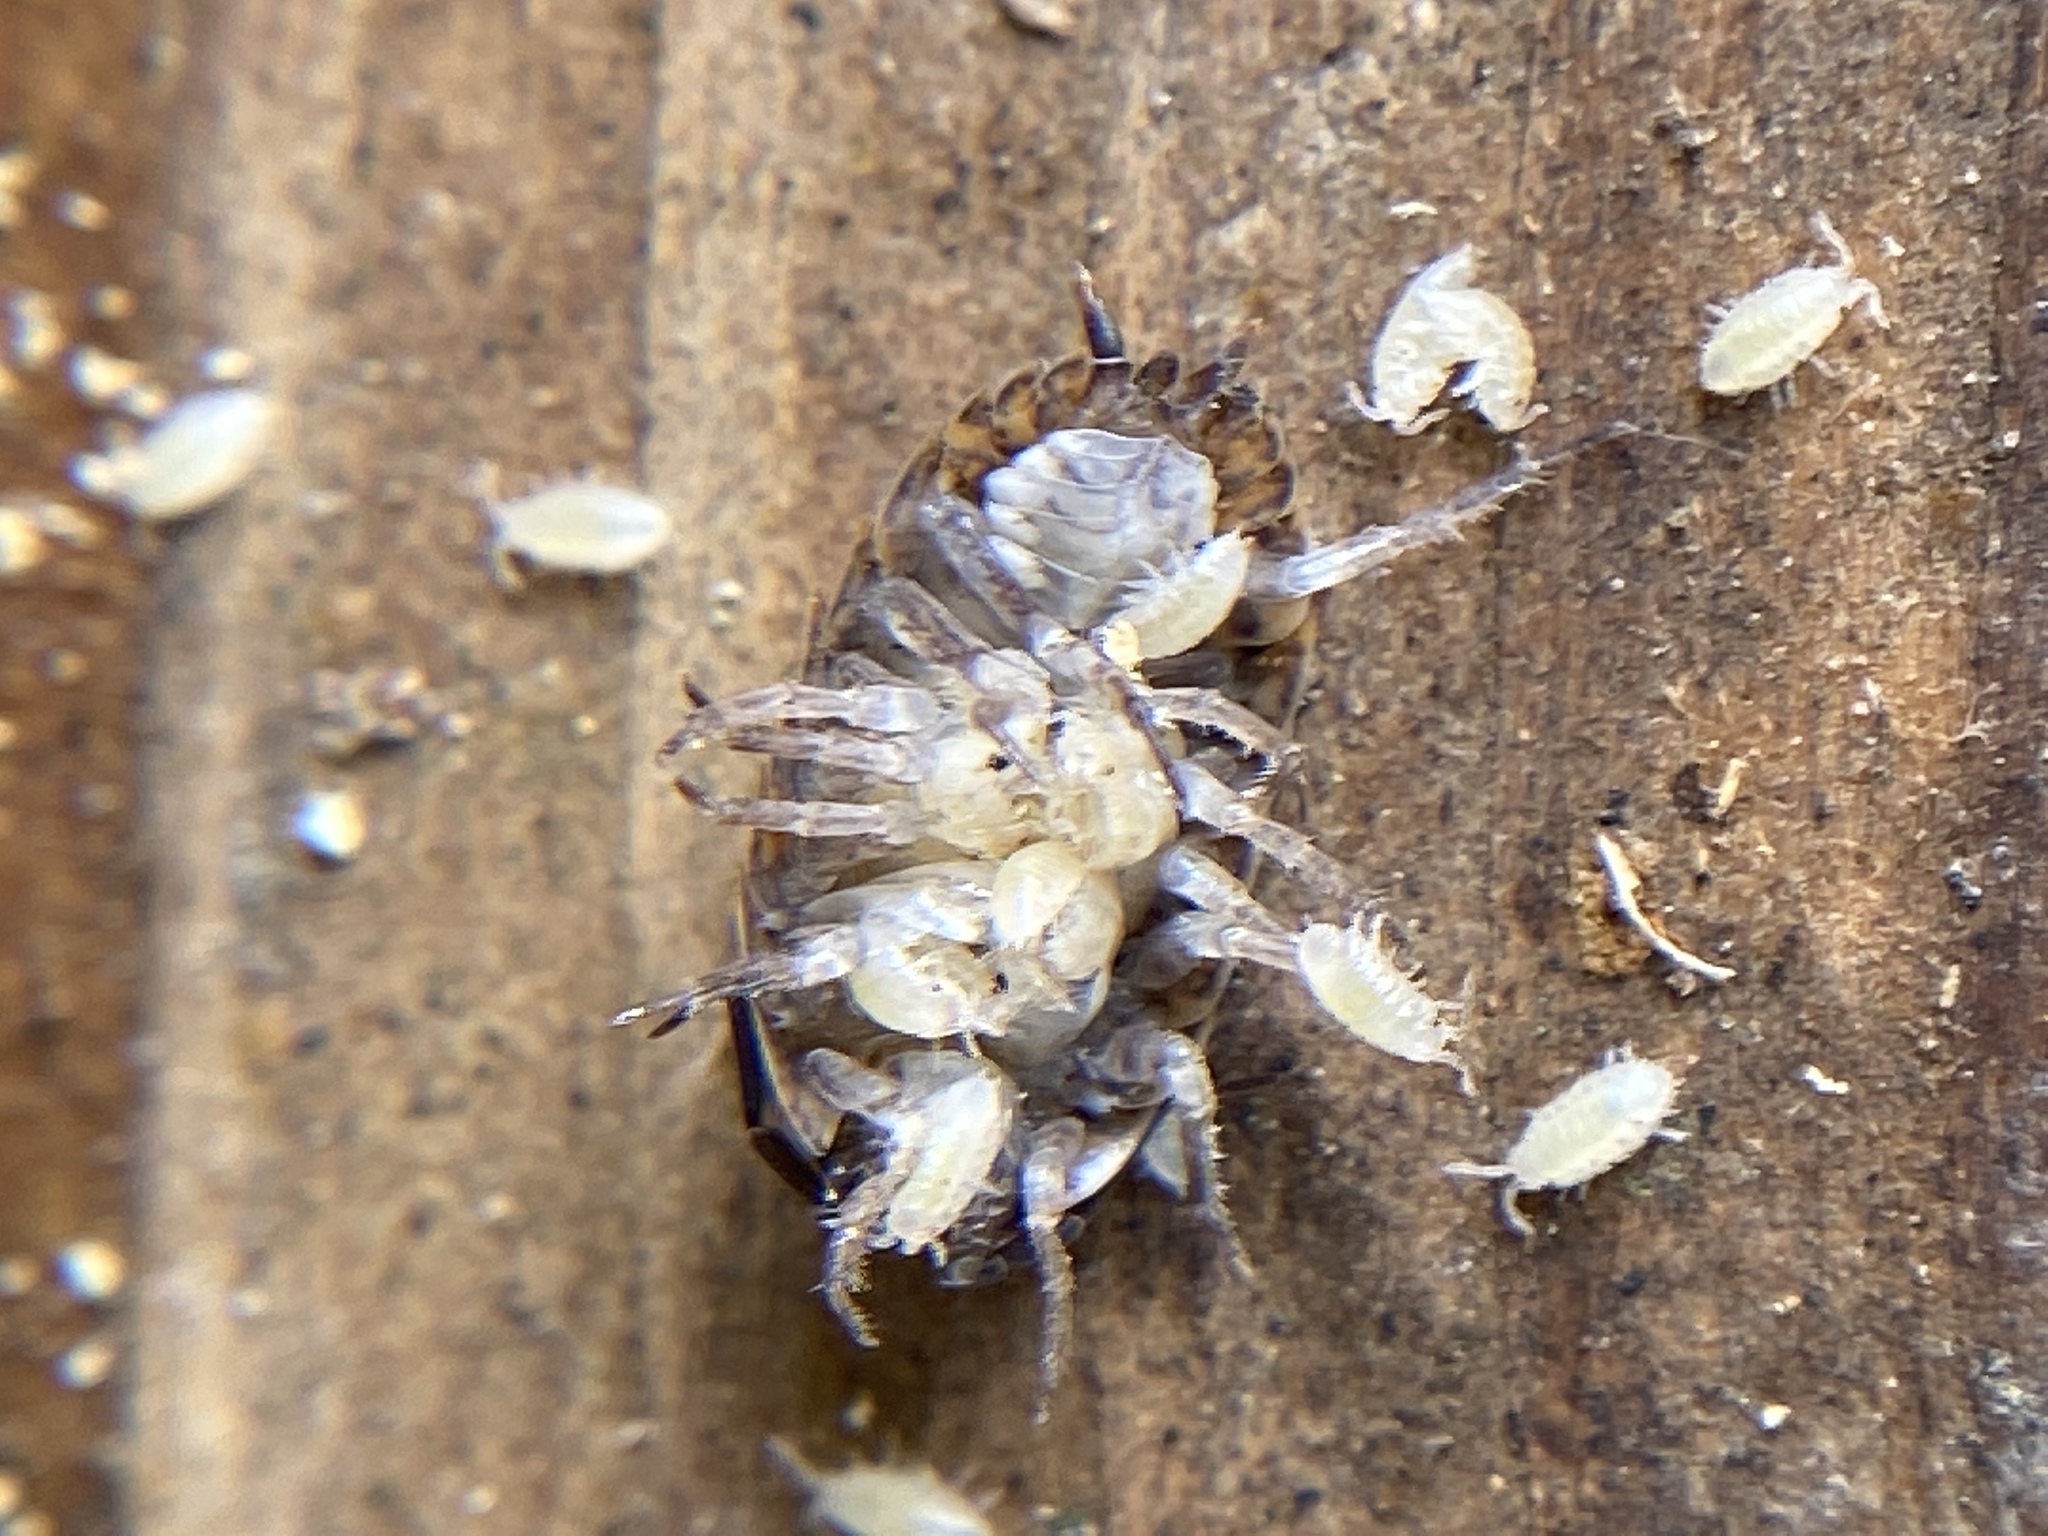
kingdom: Animalia
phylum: Arthropoda
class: Malacostraca
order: Isopoda
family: Trachelipodidae
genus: Trachelipus
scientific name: Trachelipus rathkii
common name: Isopod
